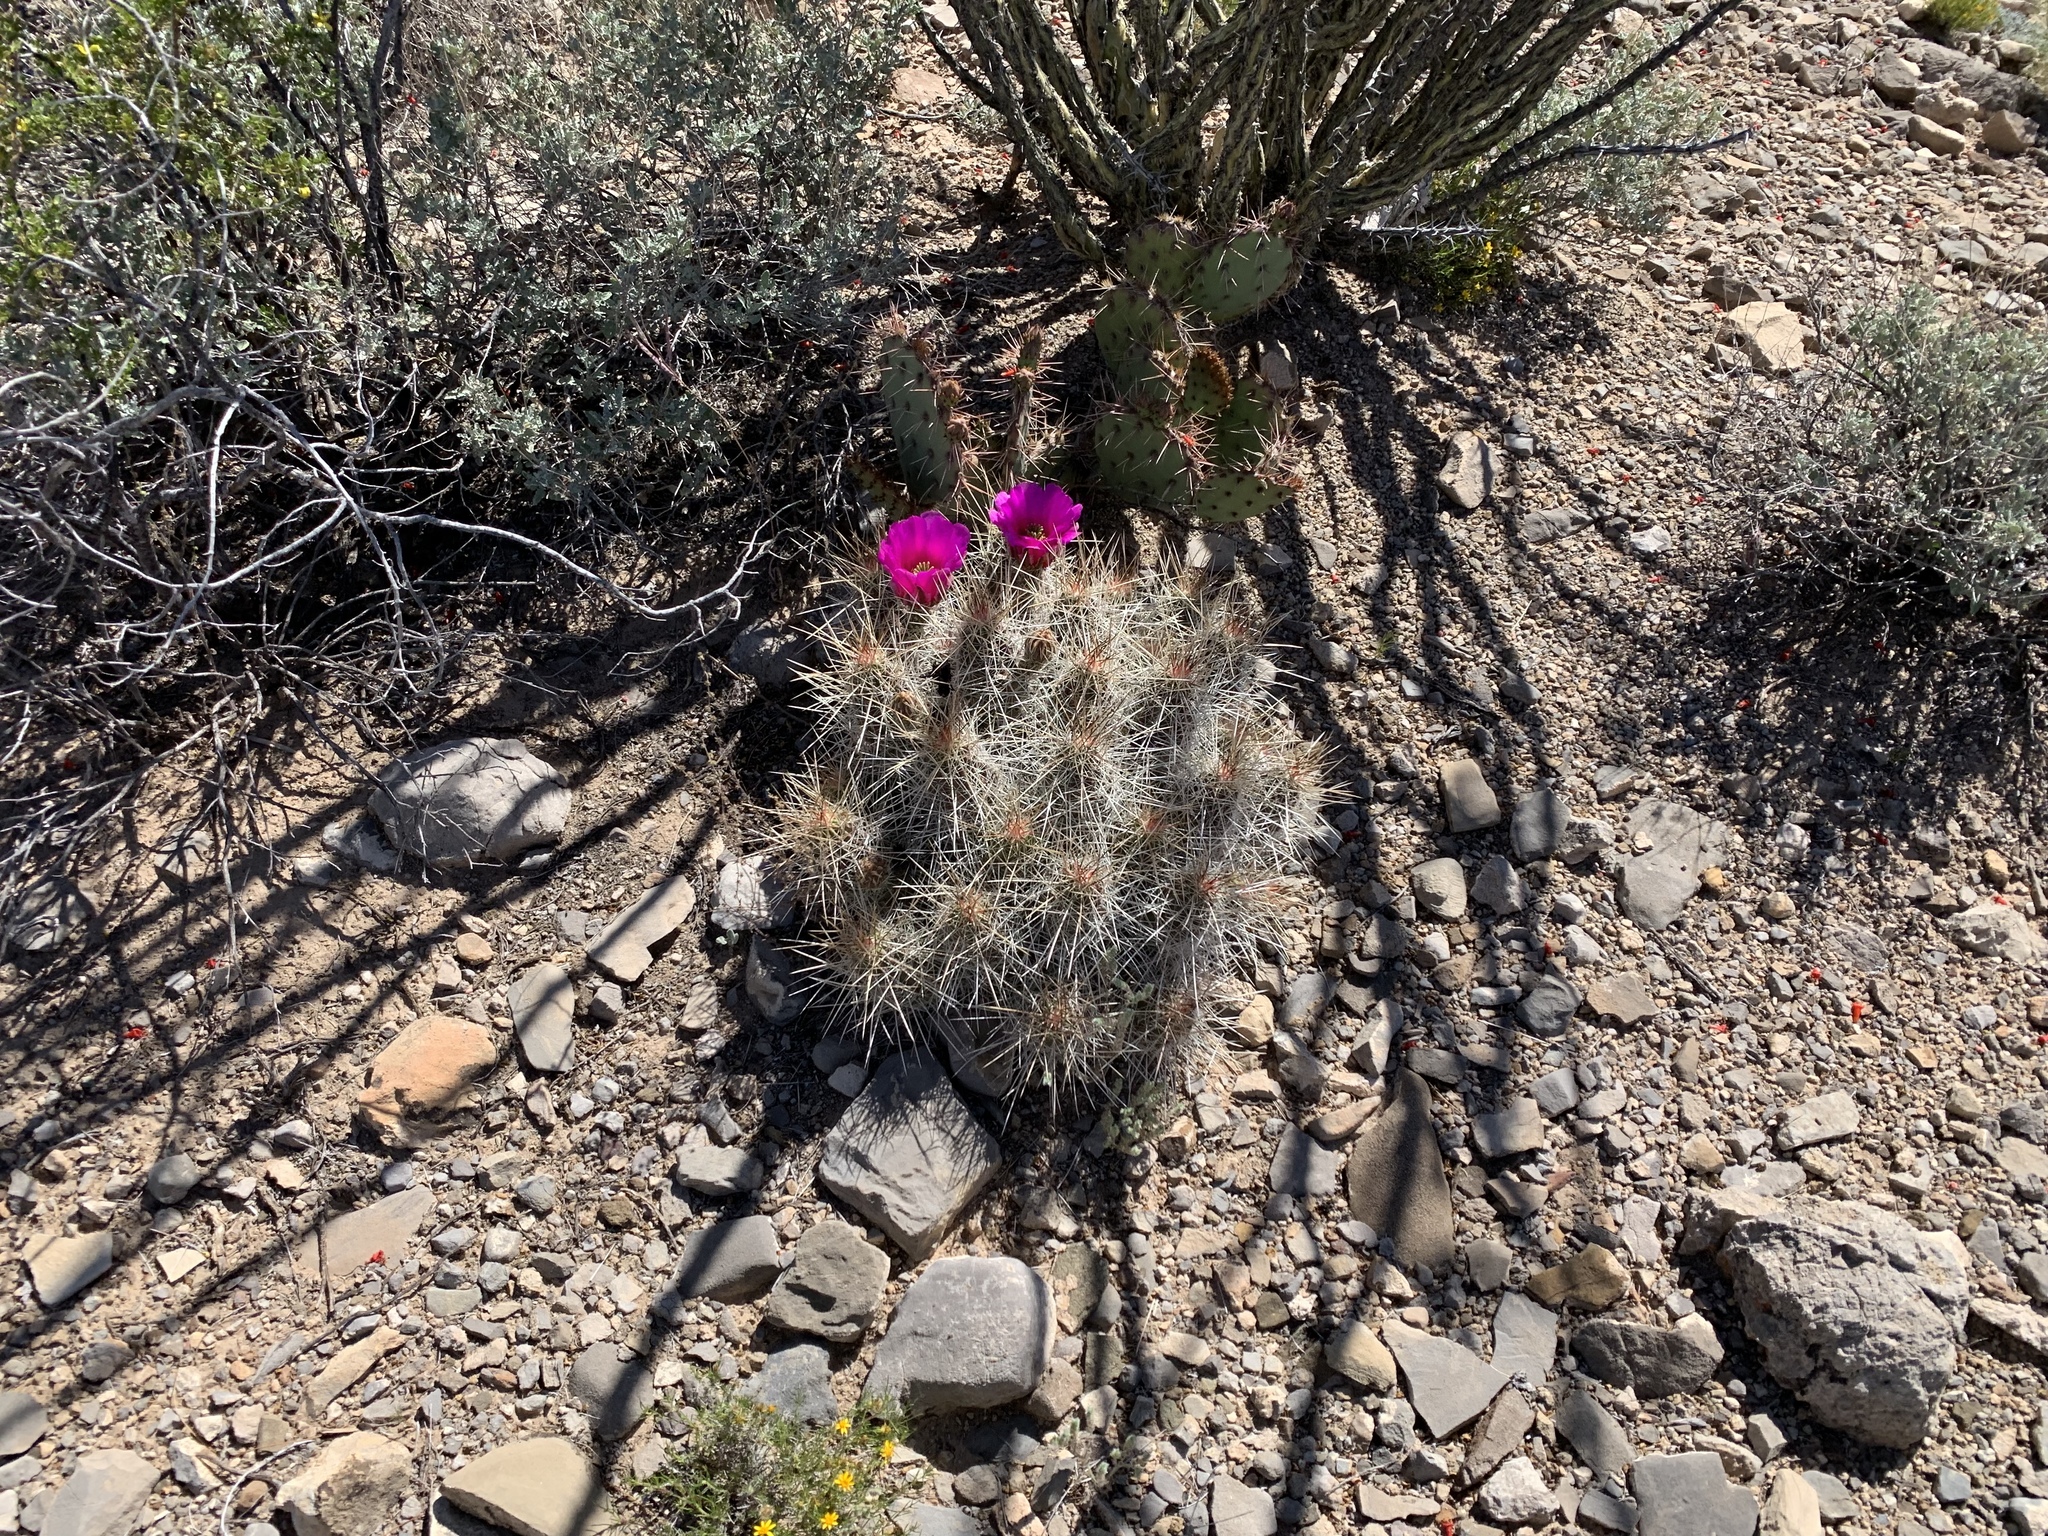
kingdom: Plantae
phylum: Tracheophyta
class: Magnoliopsida
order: Caryophyllales
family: Cactaceae
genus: Echinocereus
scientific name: Echinocereus stramineus
